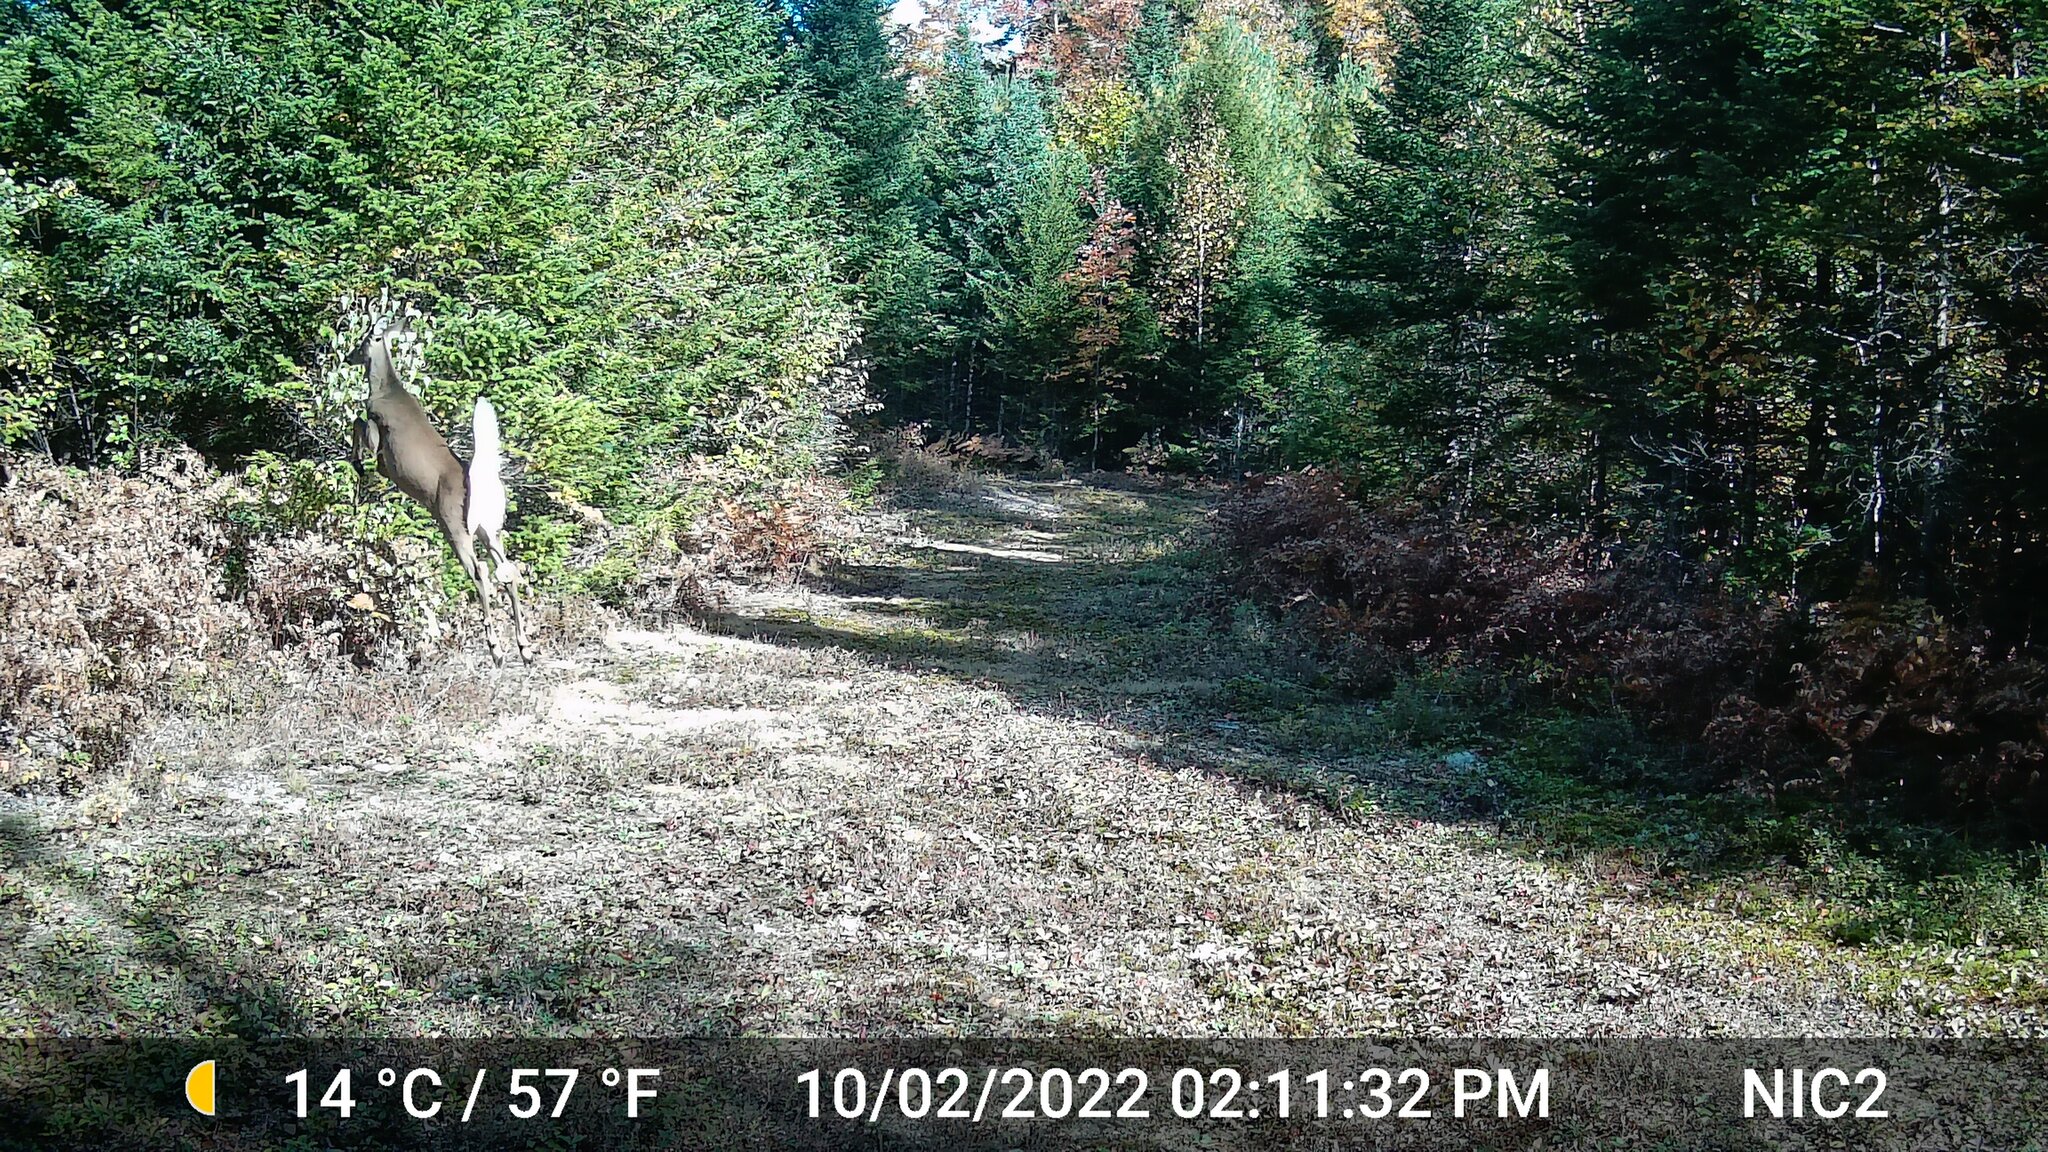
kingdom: Animalia
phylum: Chordata
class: Mammalia
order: Artiodactyla
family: Cervidae
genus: Odocoileus
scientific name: Odocoileus virginianus
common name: White-tailed deer
